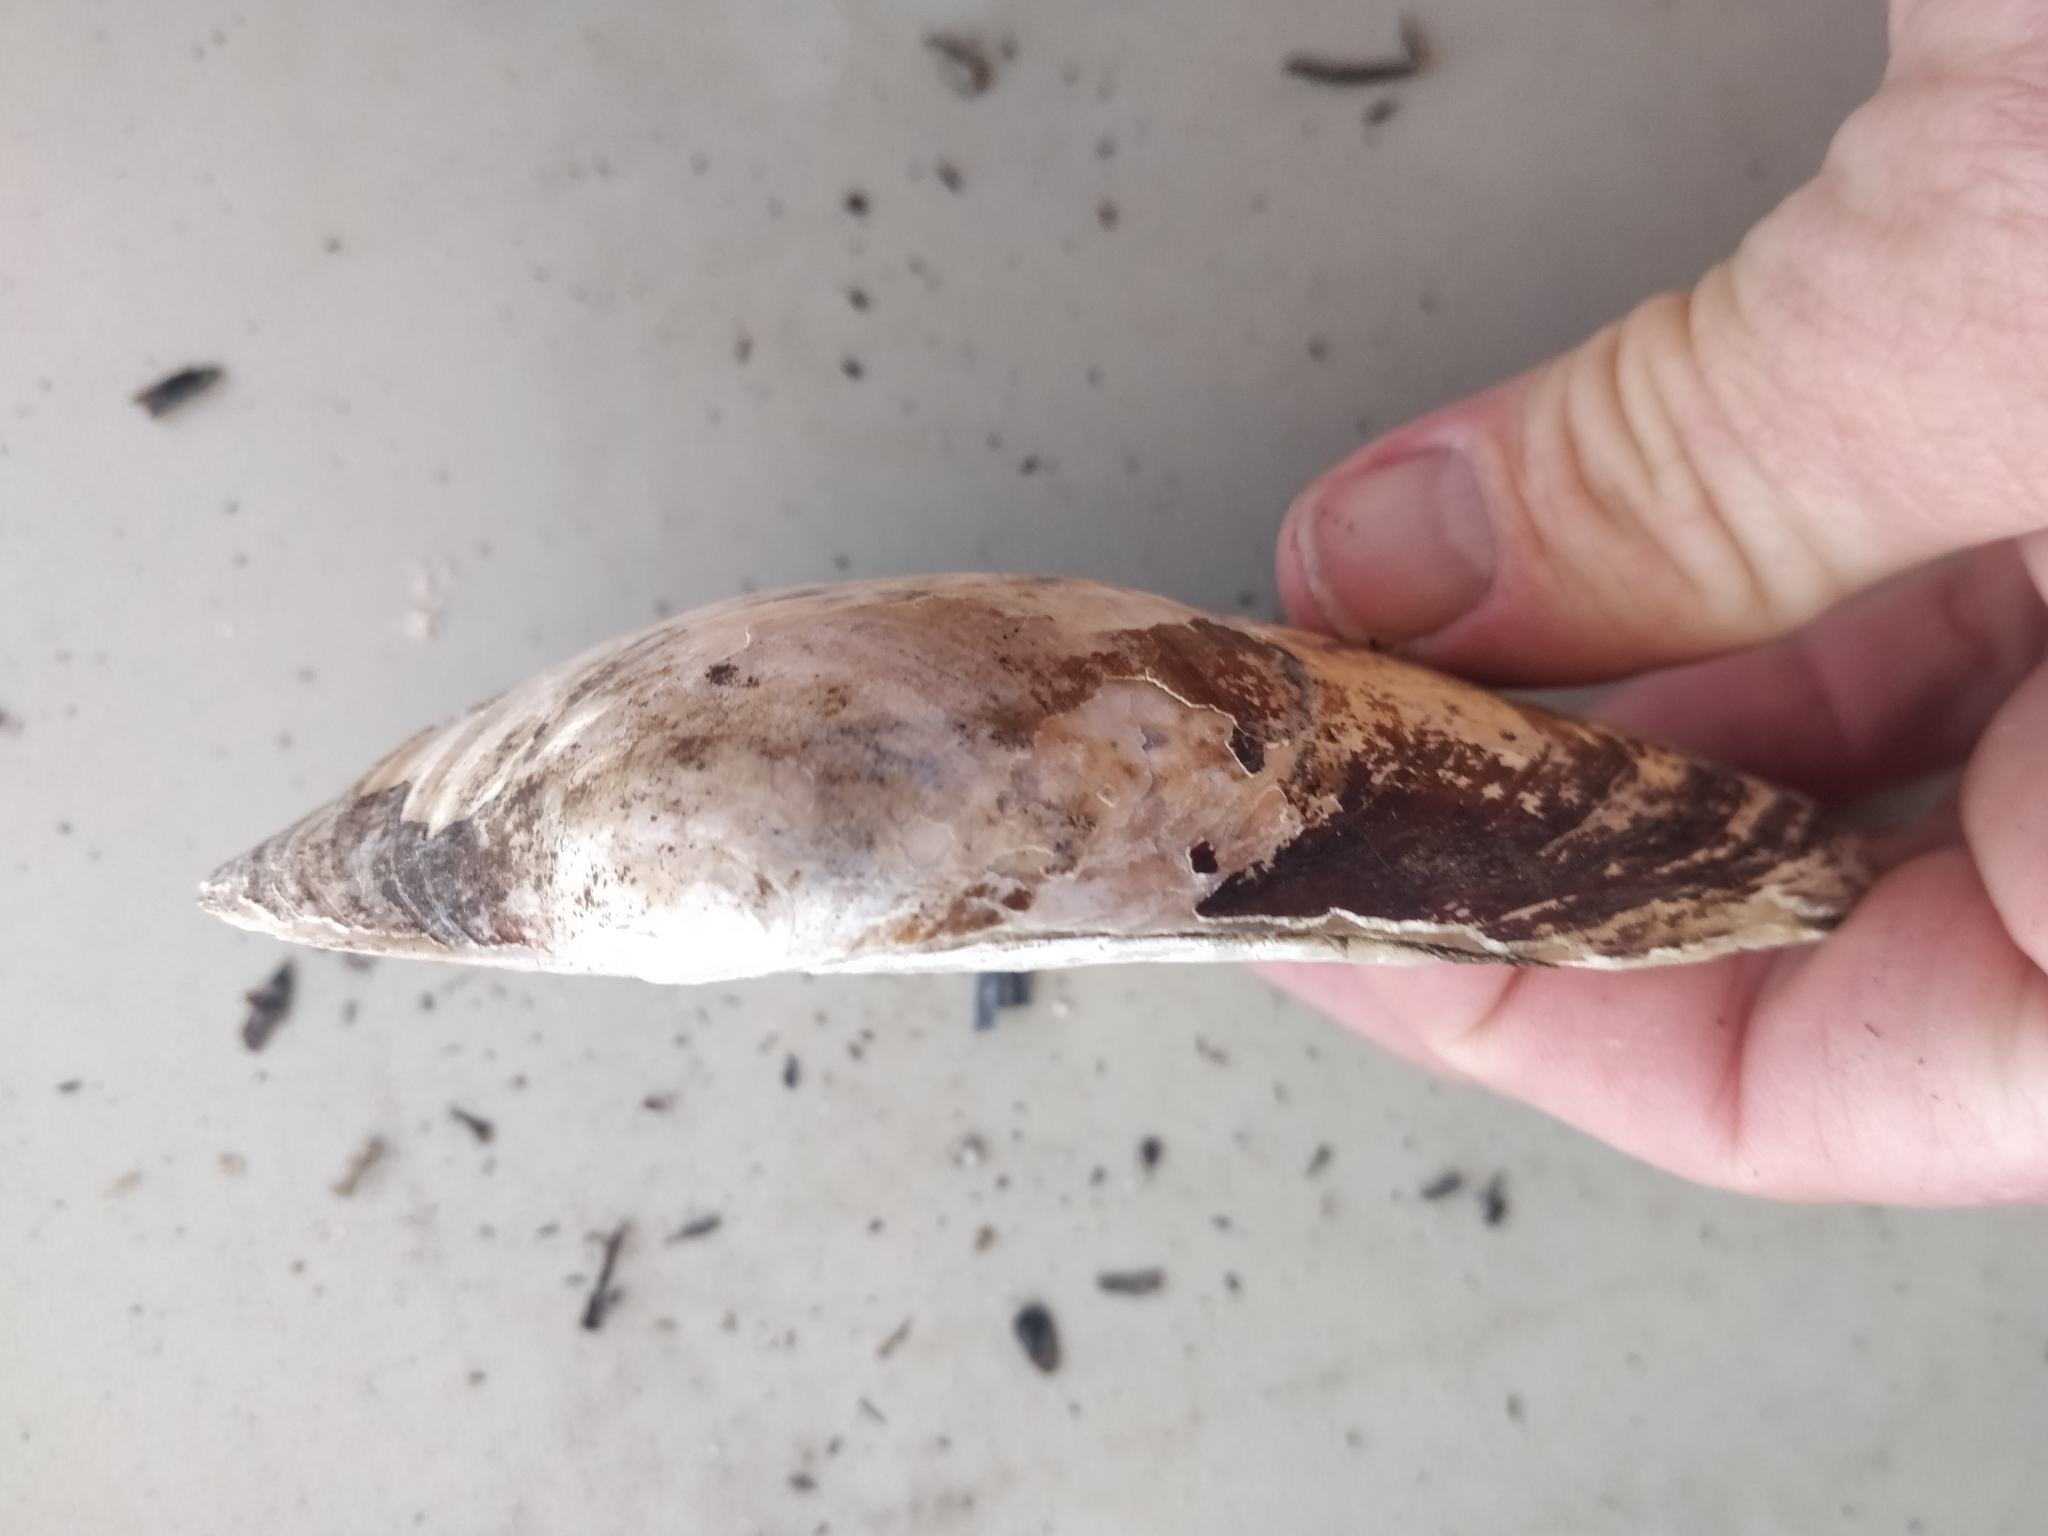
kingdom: Animalia
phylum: Mollusca
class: Bivalvia
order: Unionida
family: Unionidae
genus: Pyganodon
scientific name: Pyganodon grandis
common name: Giant floater
